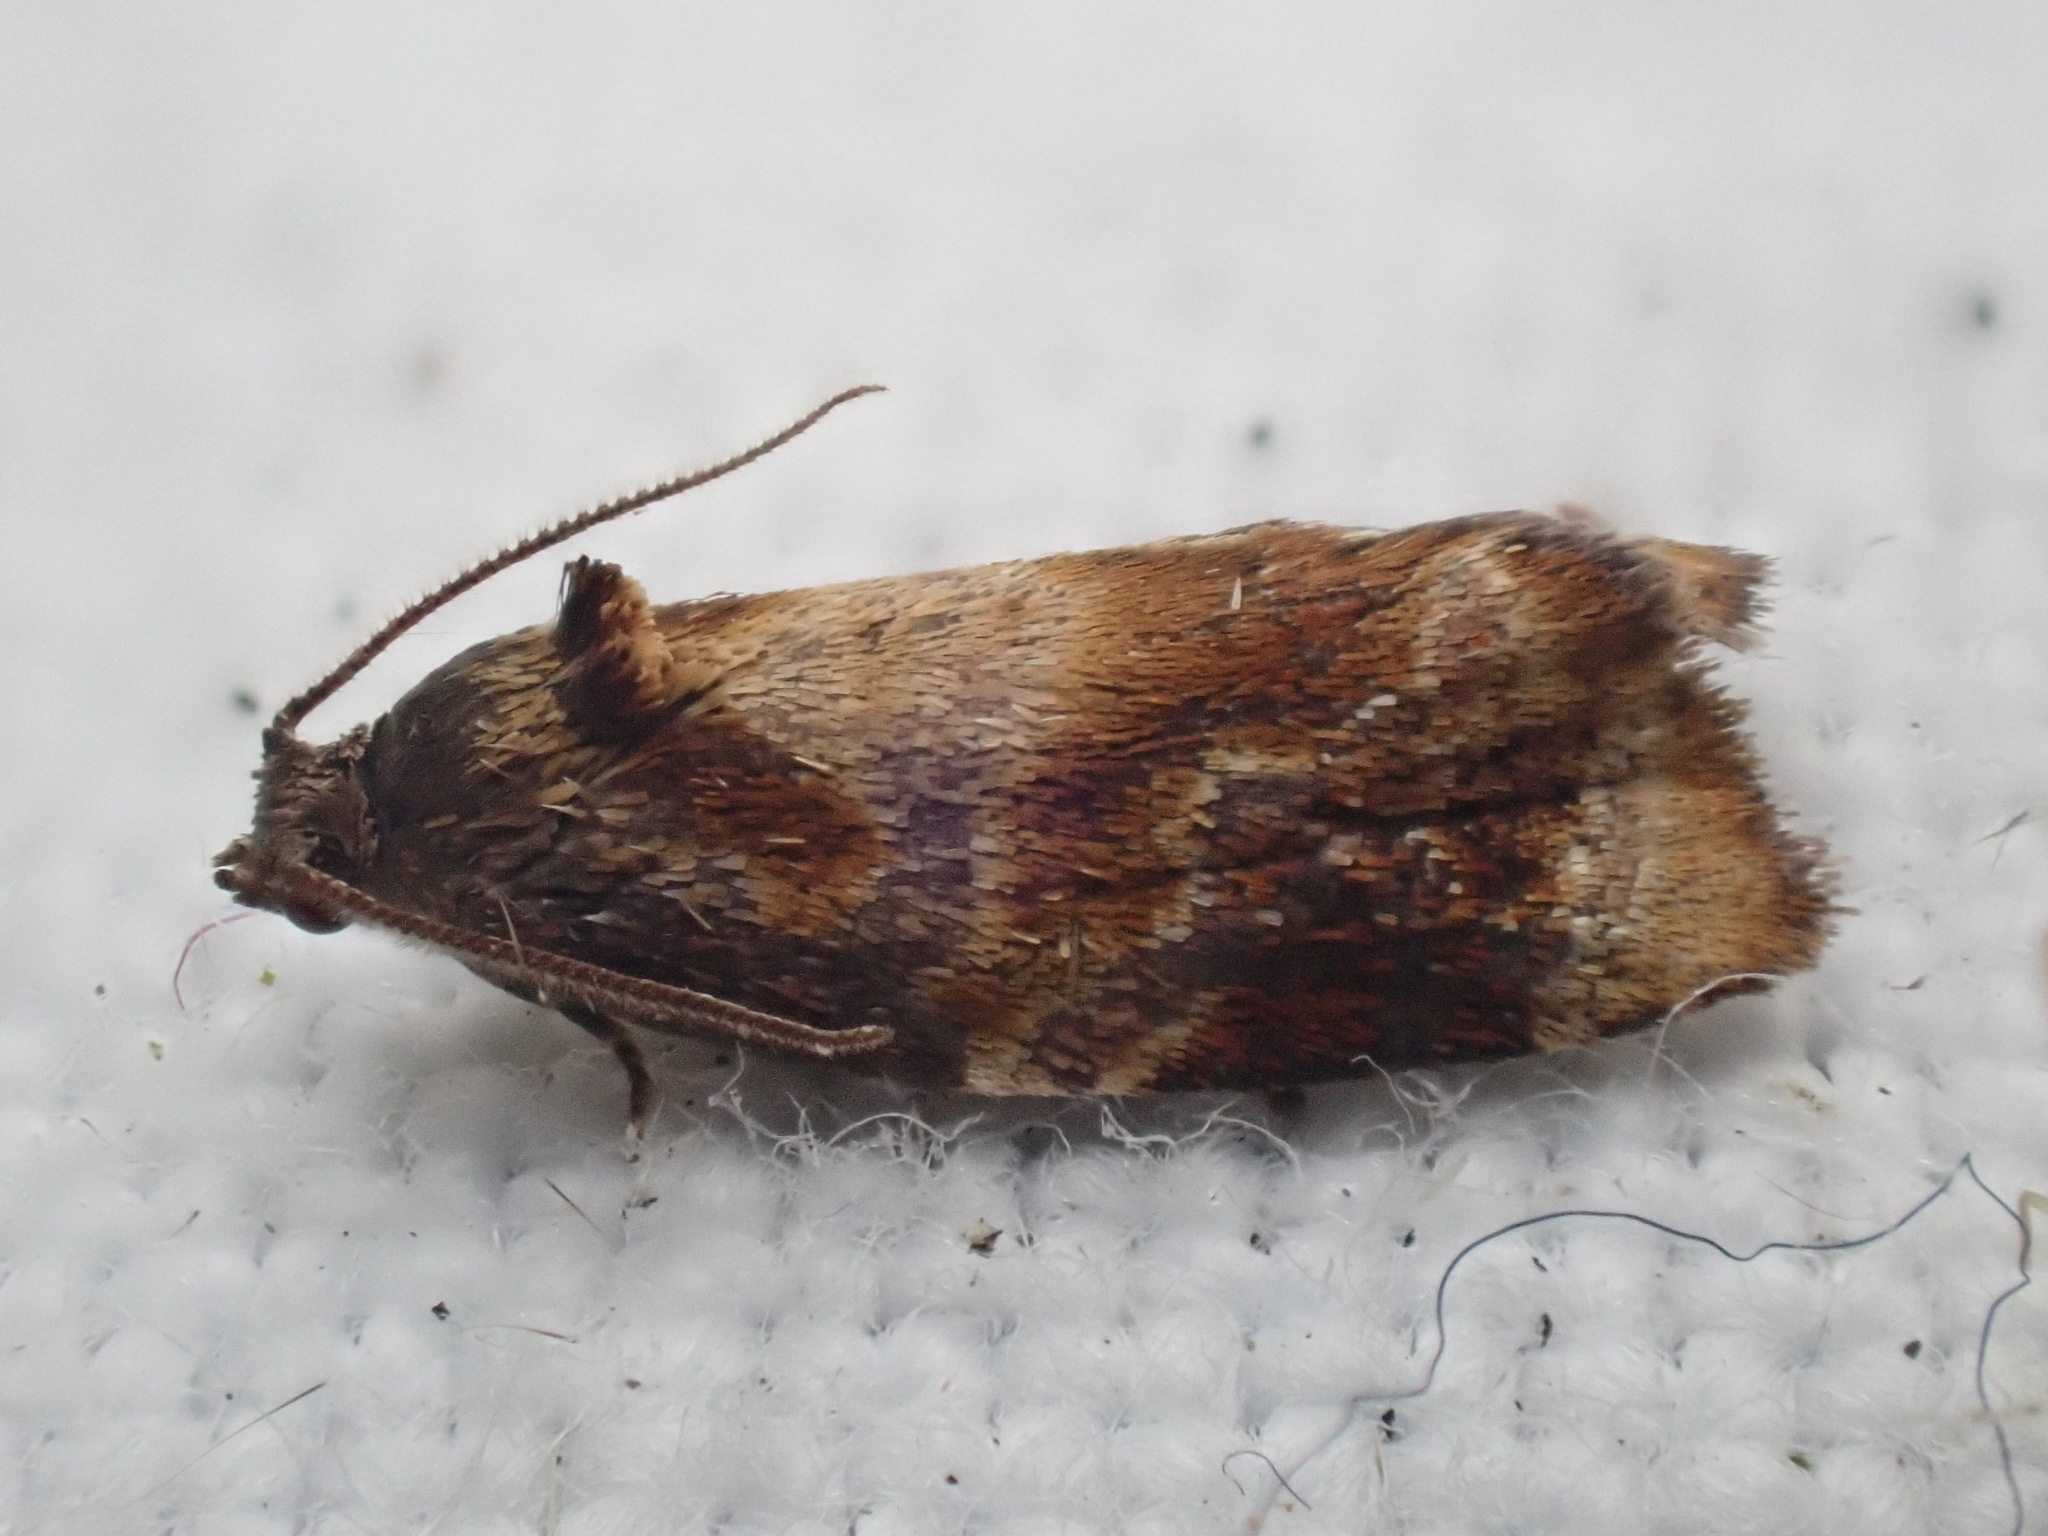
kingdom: Animalia
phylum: Arthropoda
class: Insecta
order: Lepidoptera
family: Tortricidae
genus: Ditula
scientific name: Ditula angustiorana
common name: Red-barred tortrix
